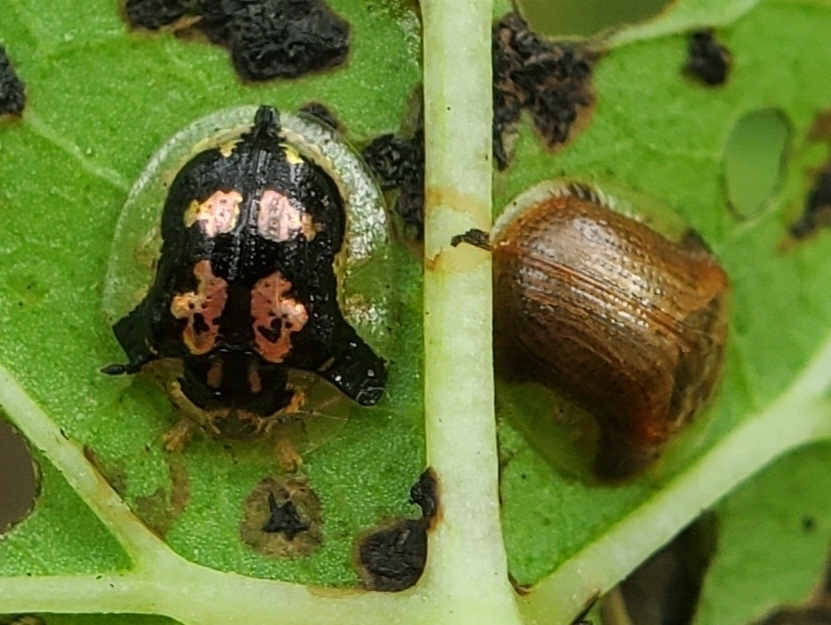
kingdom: Animalia
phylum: Arthropoda
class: Insecta
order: Coleoptera
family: Chrysomelidae
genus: Charidotella
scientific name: Charidotella purpurata
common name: Small orange tortoise beetle
